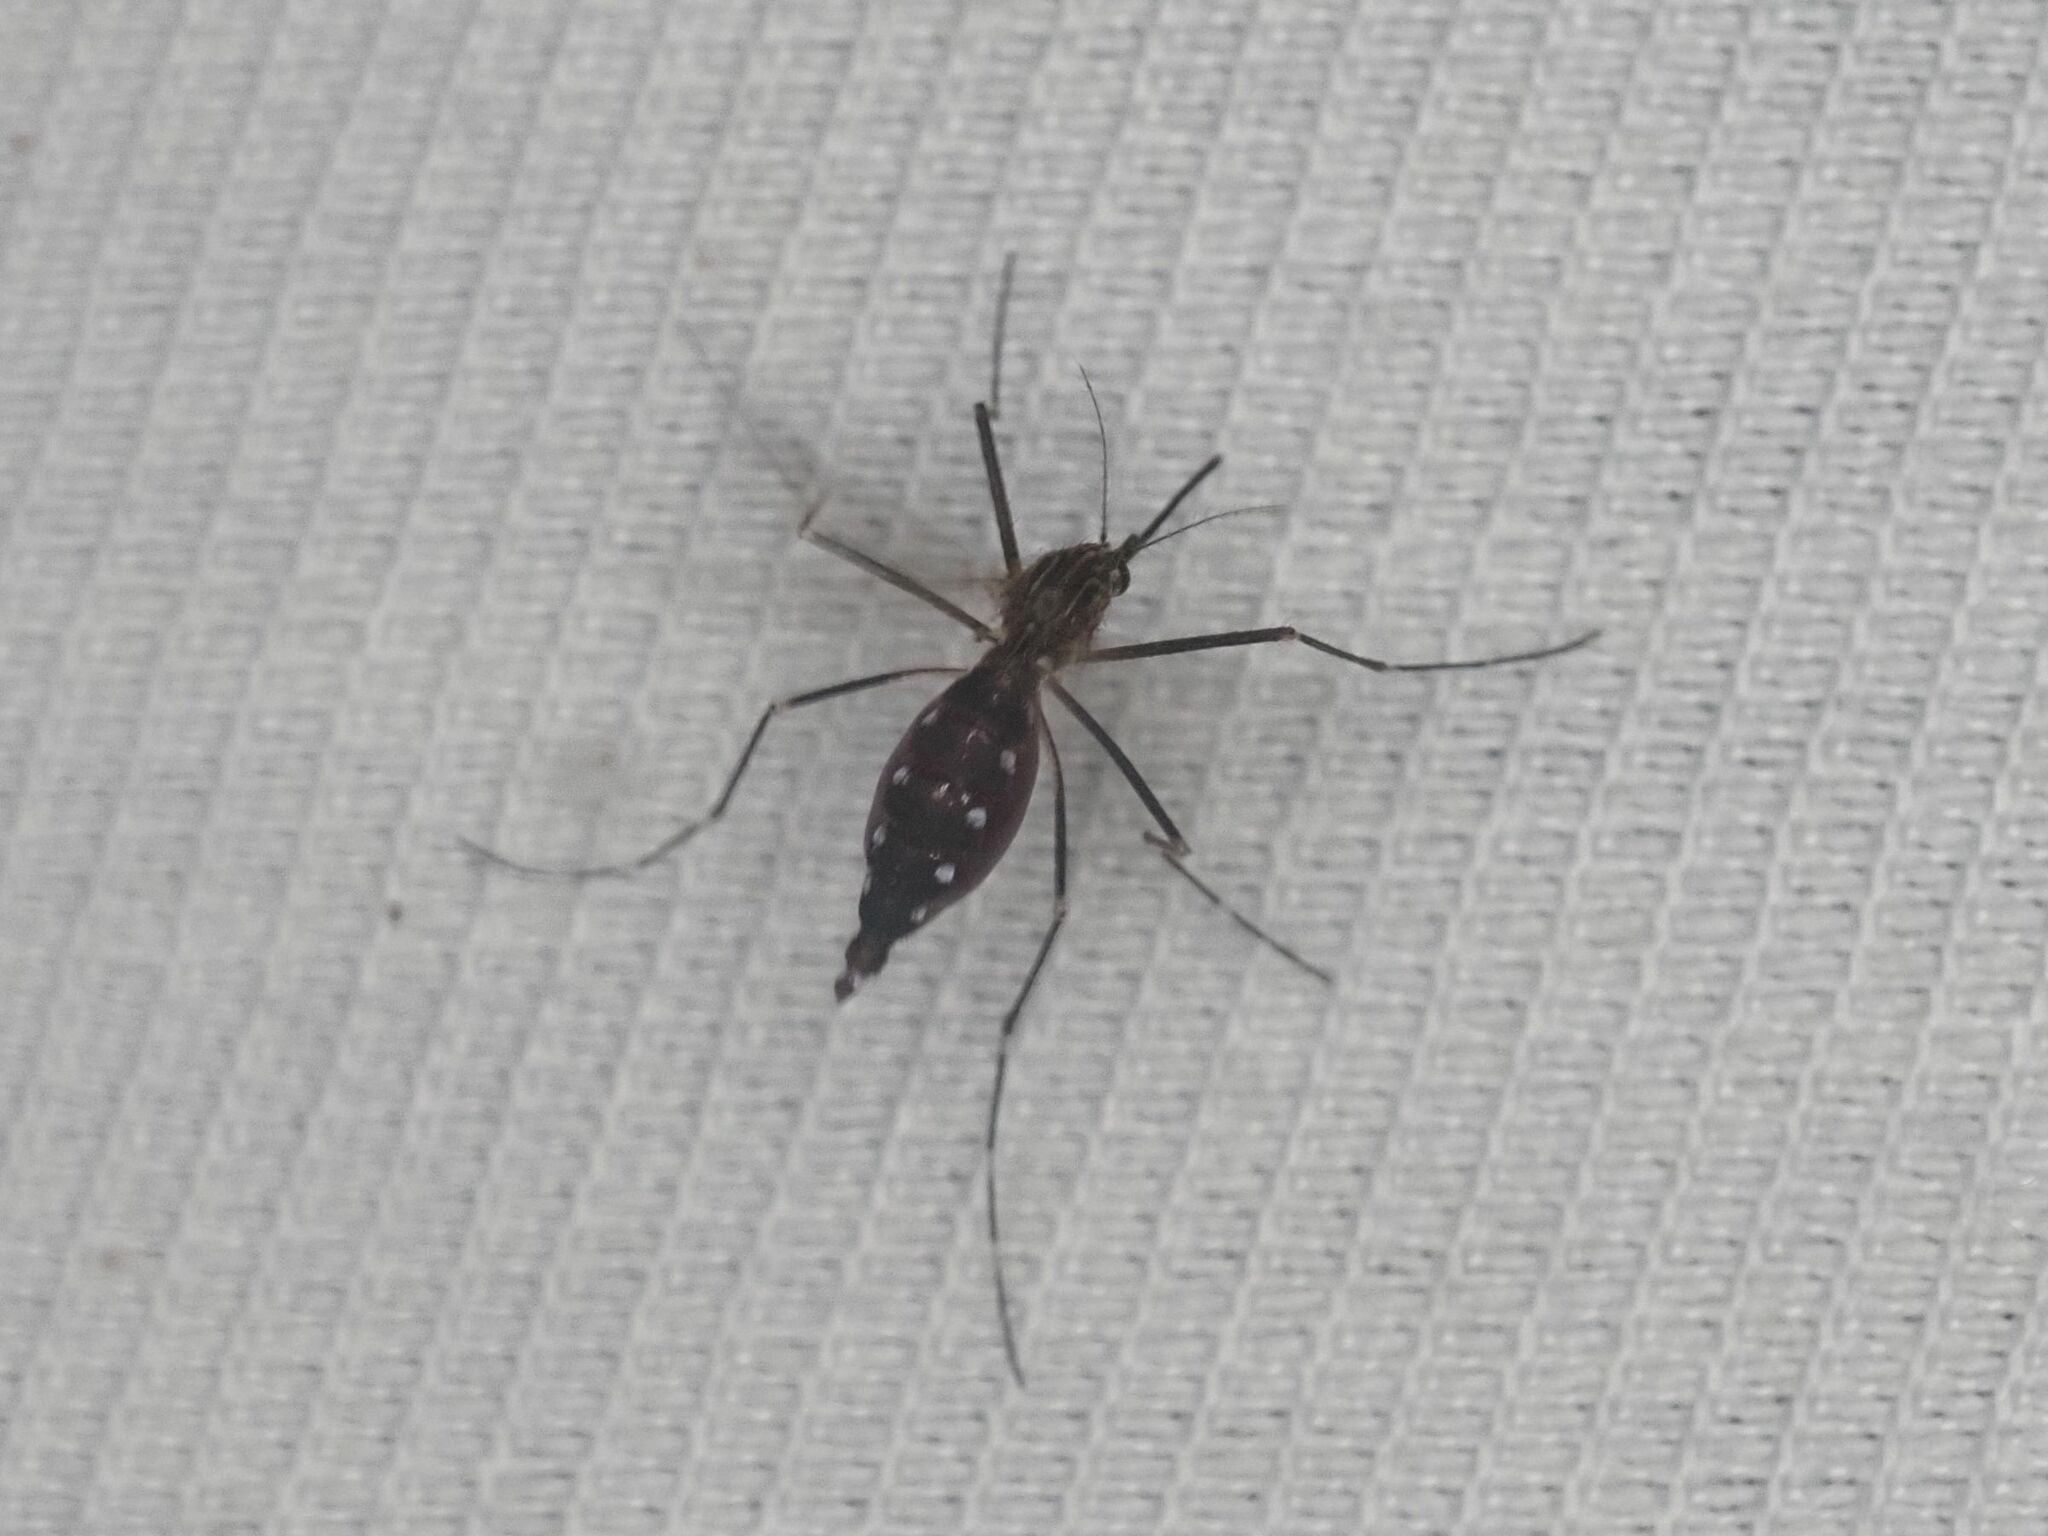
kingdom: Animalia
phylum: Arthropoda
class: Insecta
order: Diptera
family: Culicidae
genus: Aedes
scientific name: Aedes japonicus
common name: Asian bush mosquito
